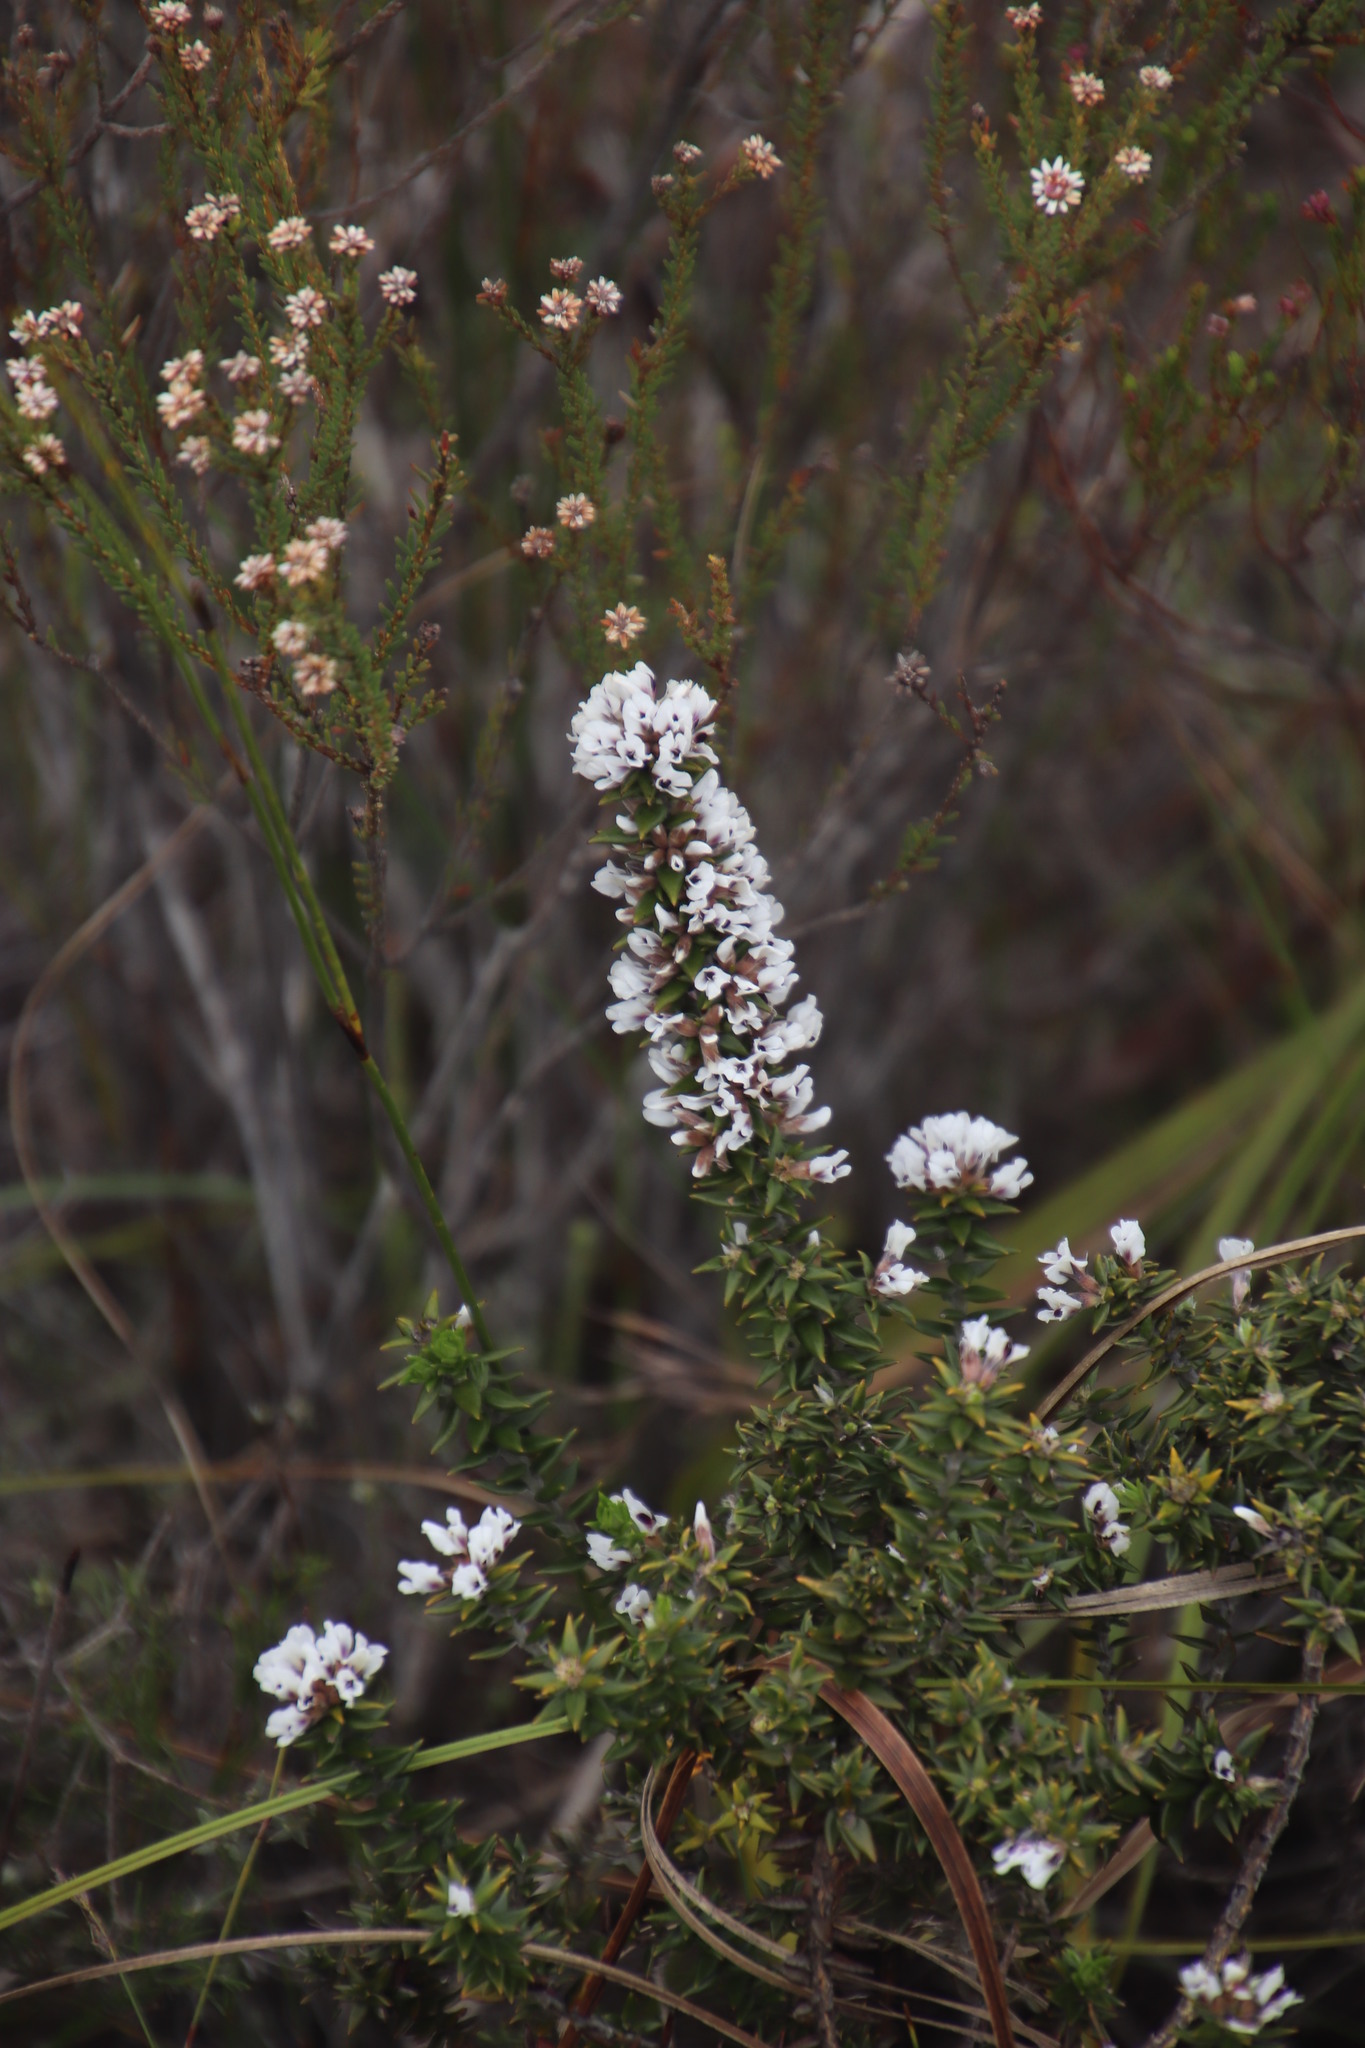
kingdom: Plantae
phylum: Tracheophyta
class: Magnoliopsida
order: Fabales
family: Fabaceae
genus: Amphithalea
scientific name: Amphithalea speciosa
